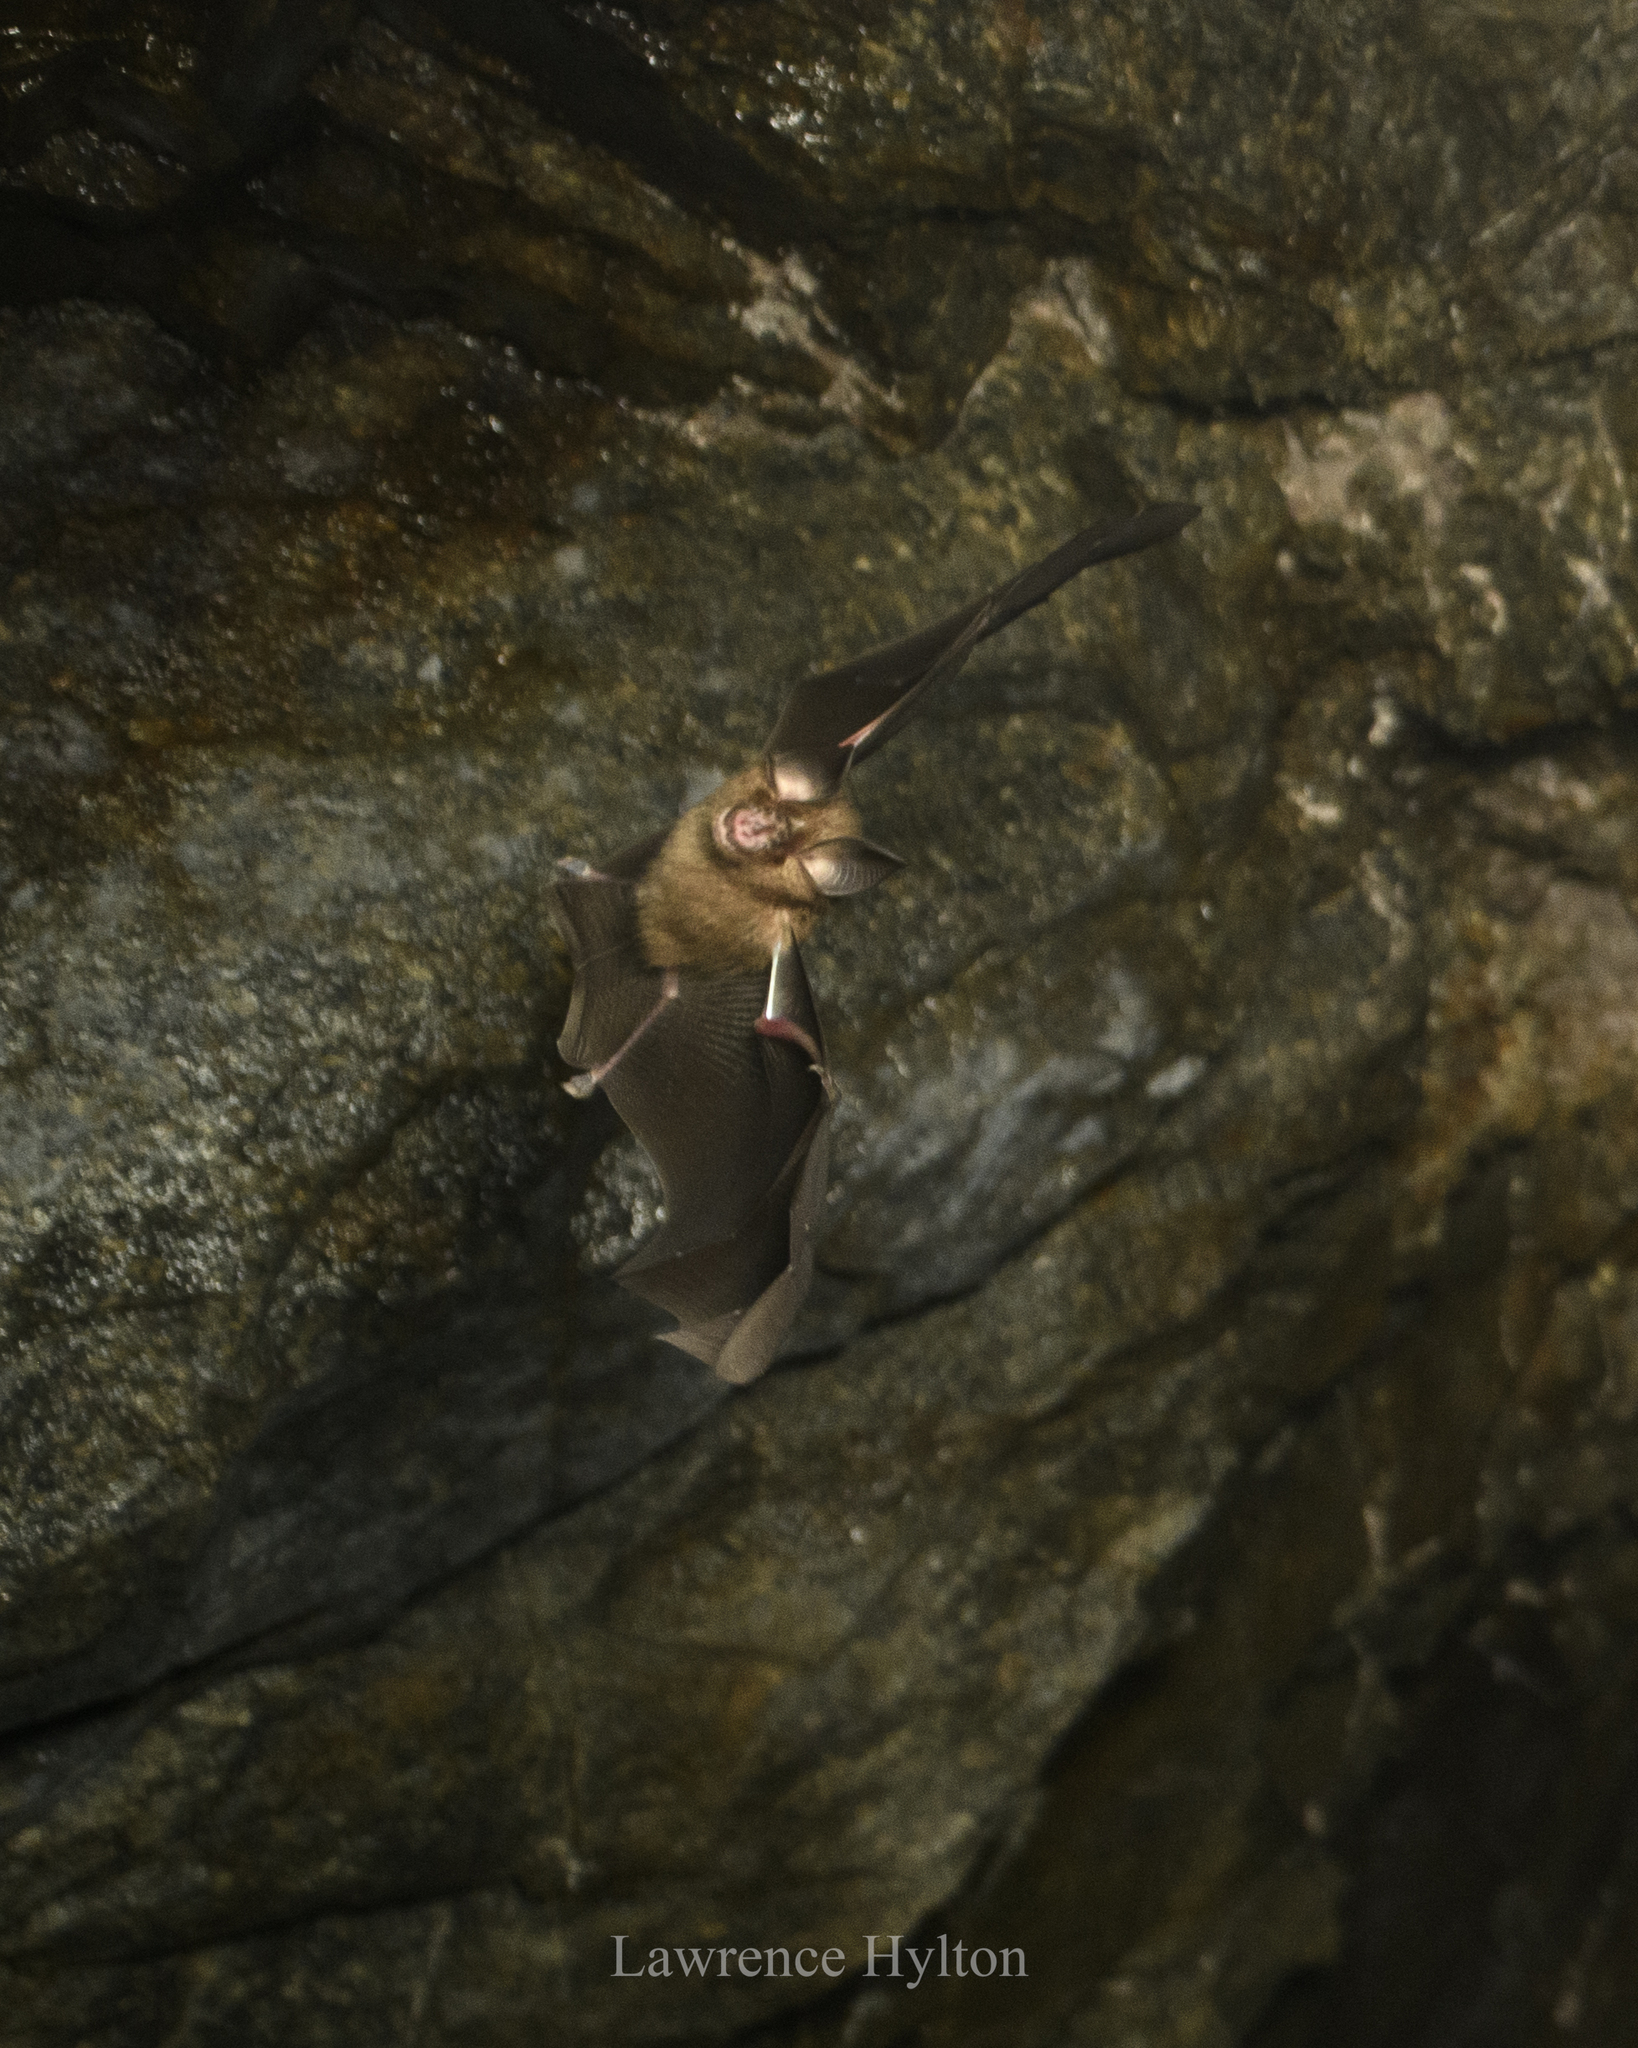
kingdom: Animalia
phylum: Chordata
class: Mammalia
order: Chiroptera
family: Rhinolophidae
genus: Rhinolophus
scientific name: Rhinolophus
